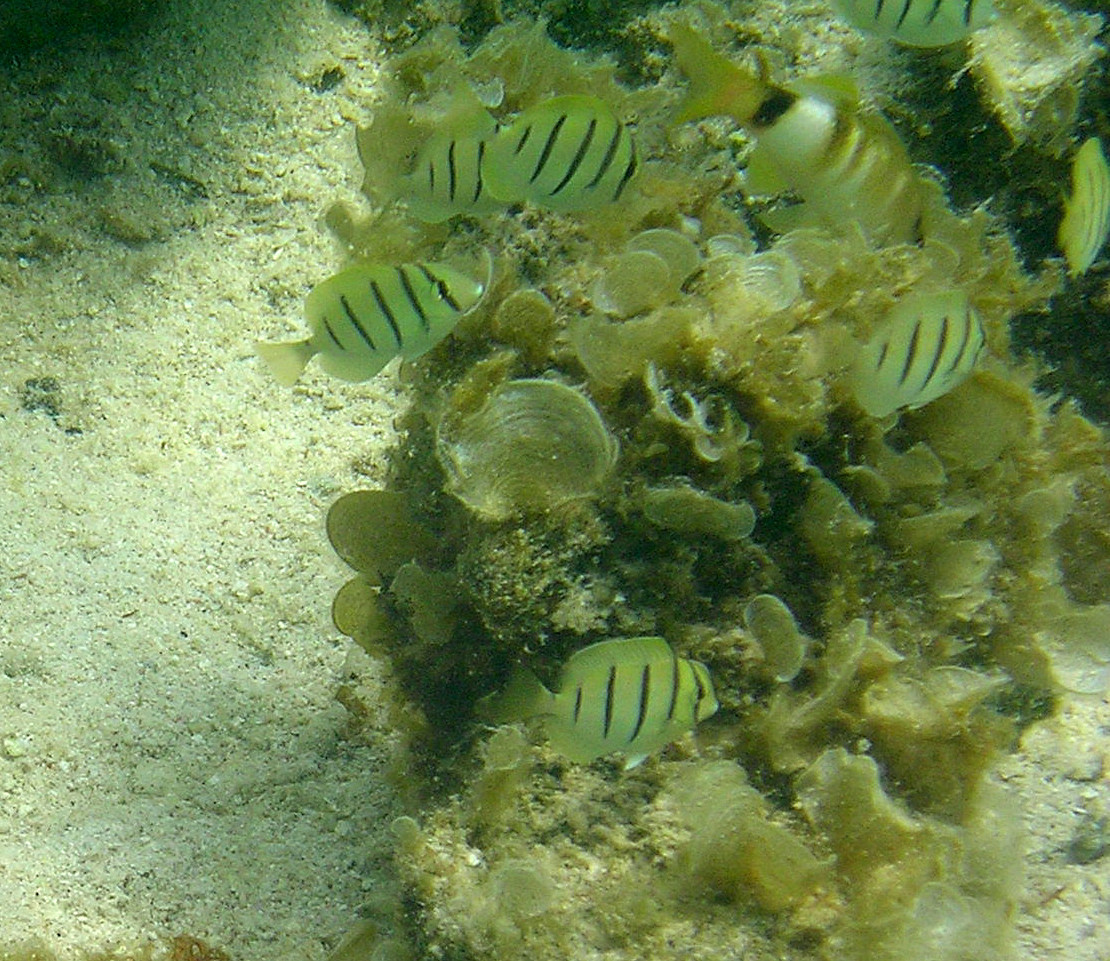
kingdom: Animalia
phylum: Chordata
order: Perciformes
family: Acanthuridae
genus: Acanthurus
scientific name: Acanthurus triostegus
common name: Convict surgeonfish
